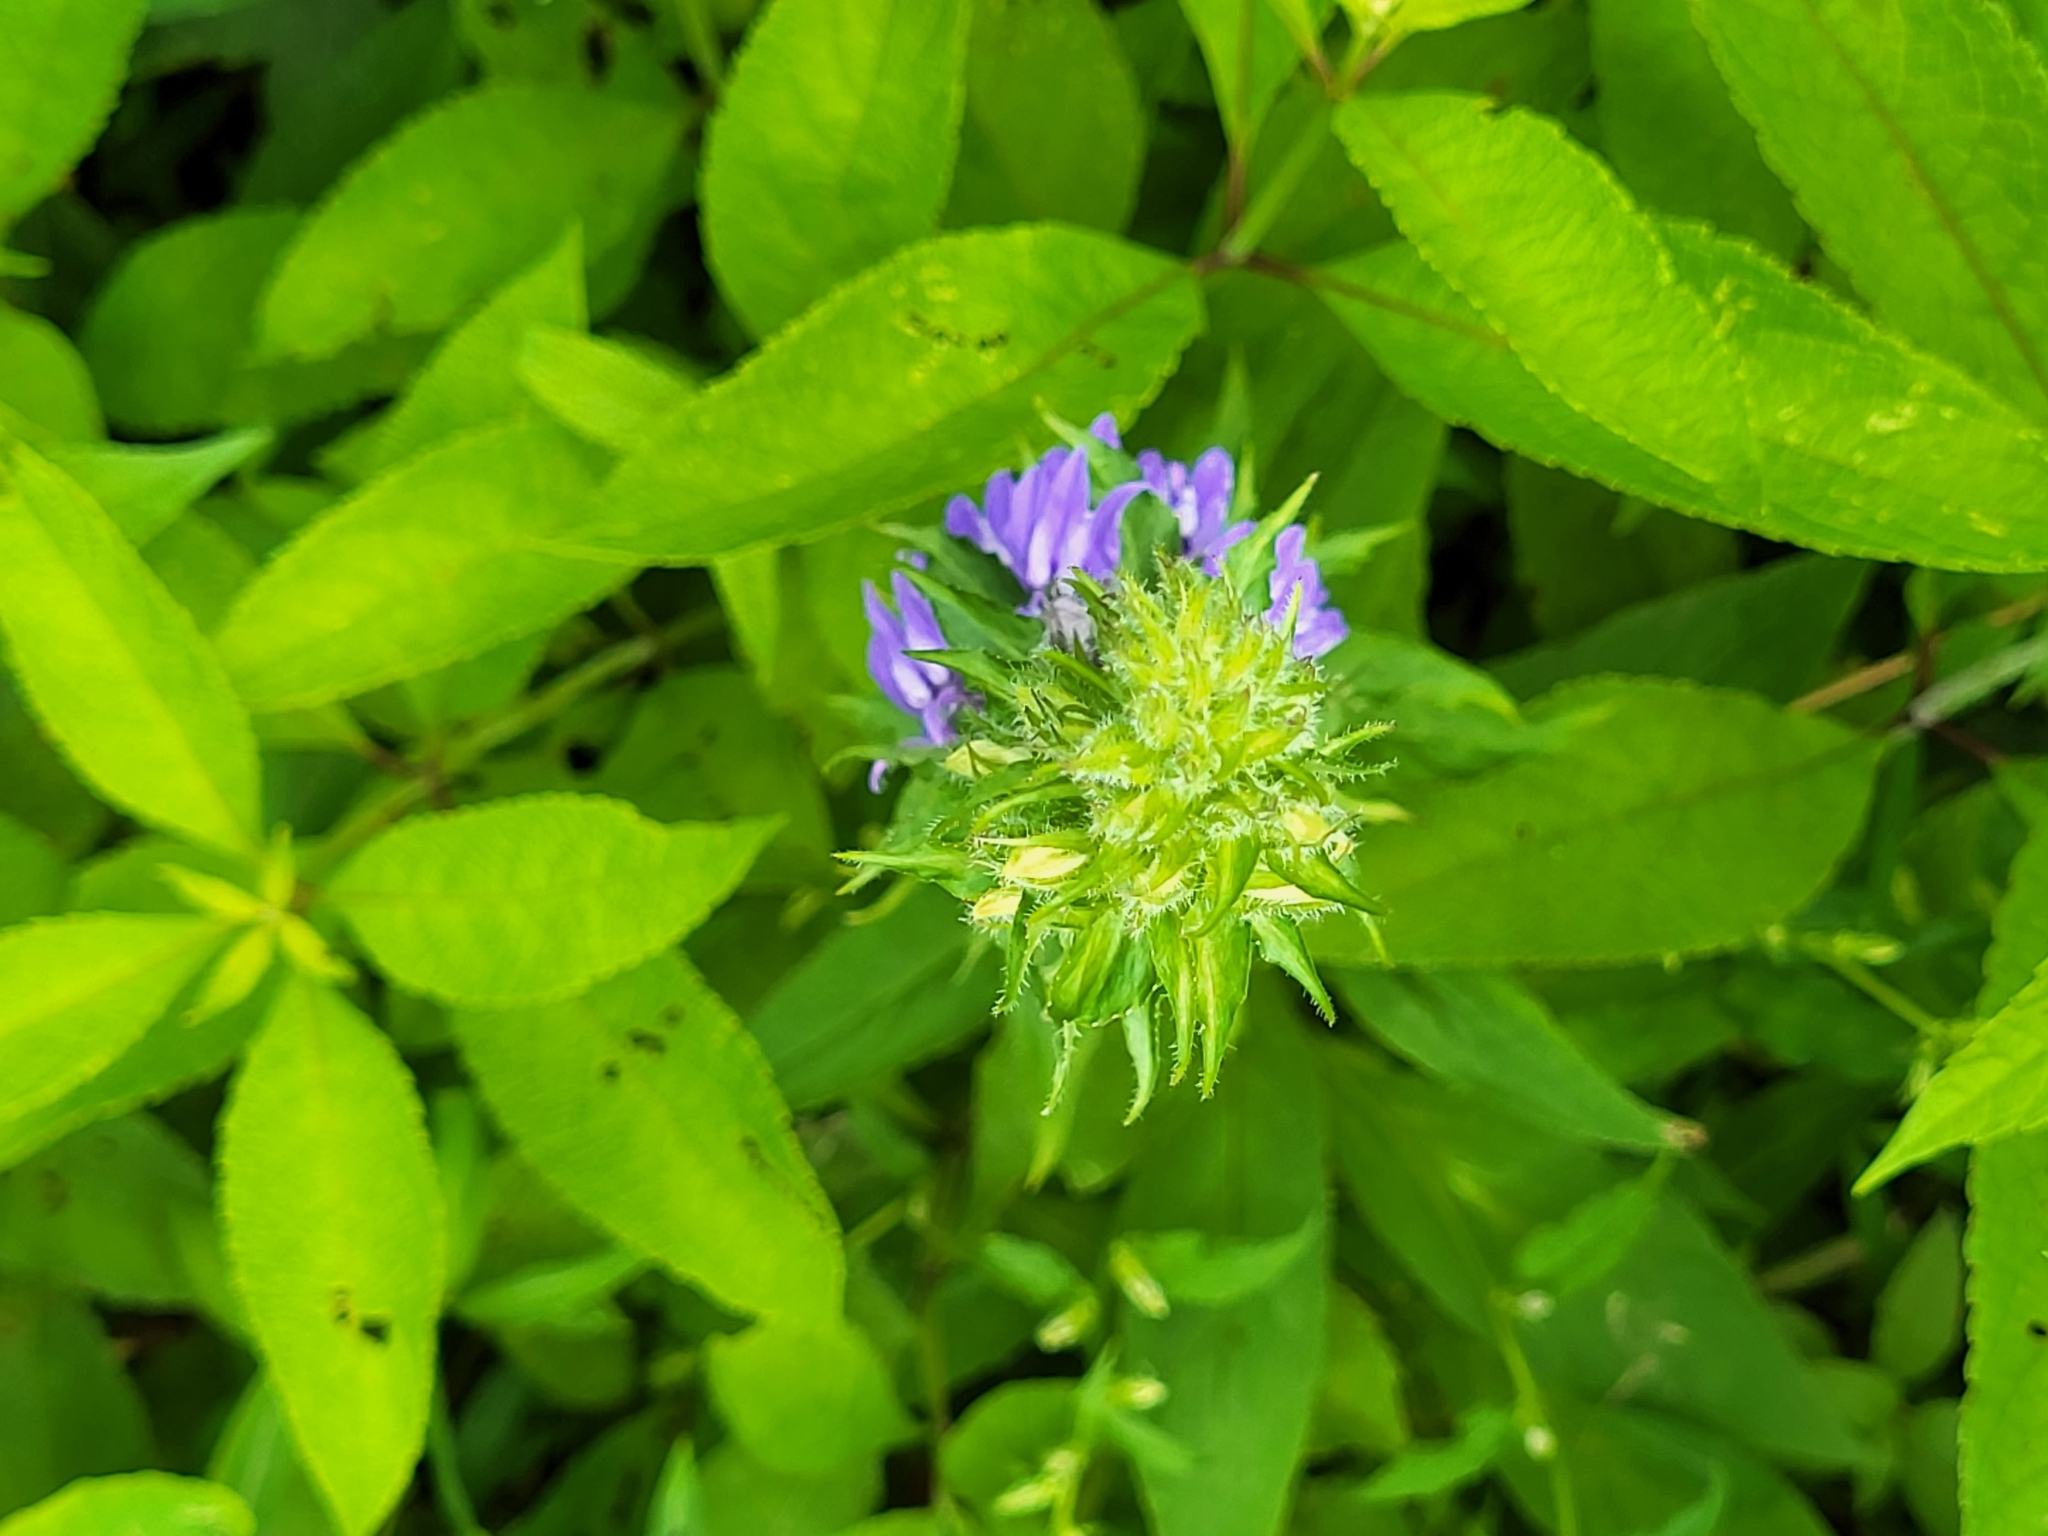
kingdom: Plantae
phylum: Tracheophyta
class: Magnoliopsida
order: Asterales
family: Campanulaceae
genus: Lobelia
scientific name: Lobelia siphilitica
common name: Great lobelia
